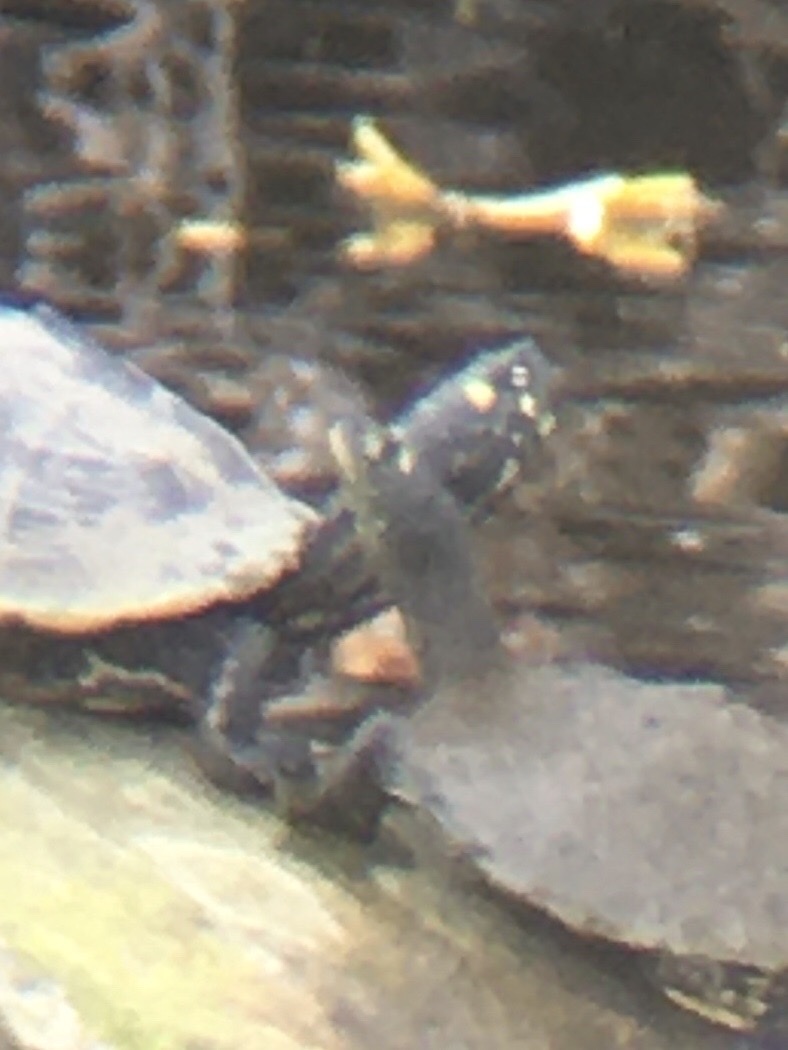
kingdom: Animalia
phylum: Chordata
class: Testudines
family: Emydidae
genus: Graptemys
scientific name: Graptemys pseudogeographica
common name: False map turtle
